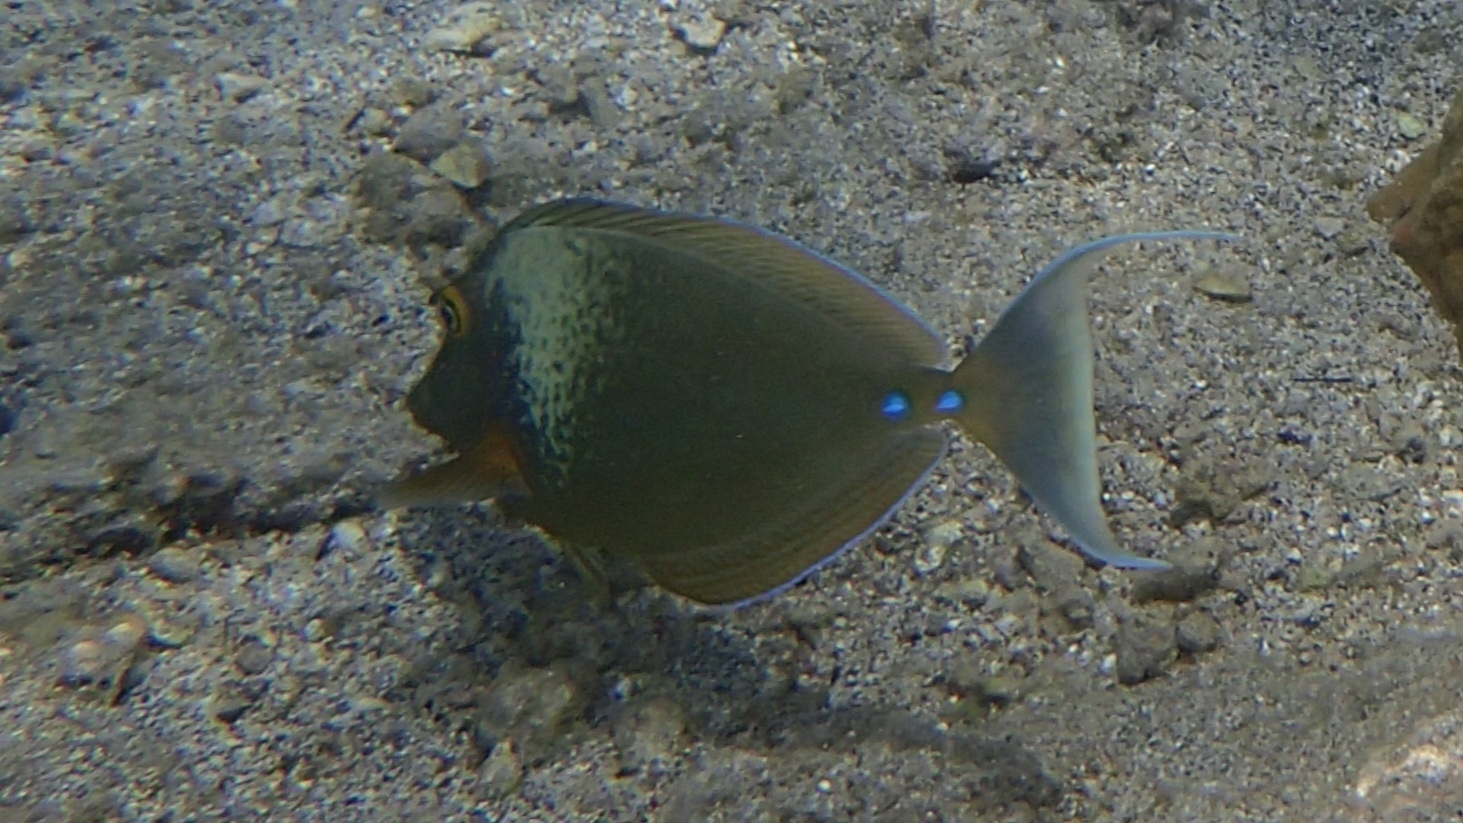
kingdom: Animalia
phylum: Chordata
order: Perciformes
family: Acanthuridae
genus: Naso
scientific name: Naso unicornis
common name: Bluespine unicornfish
